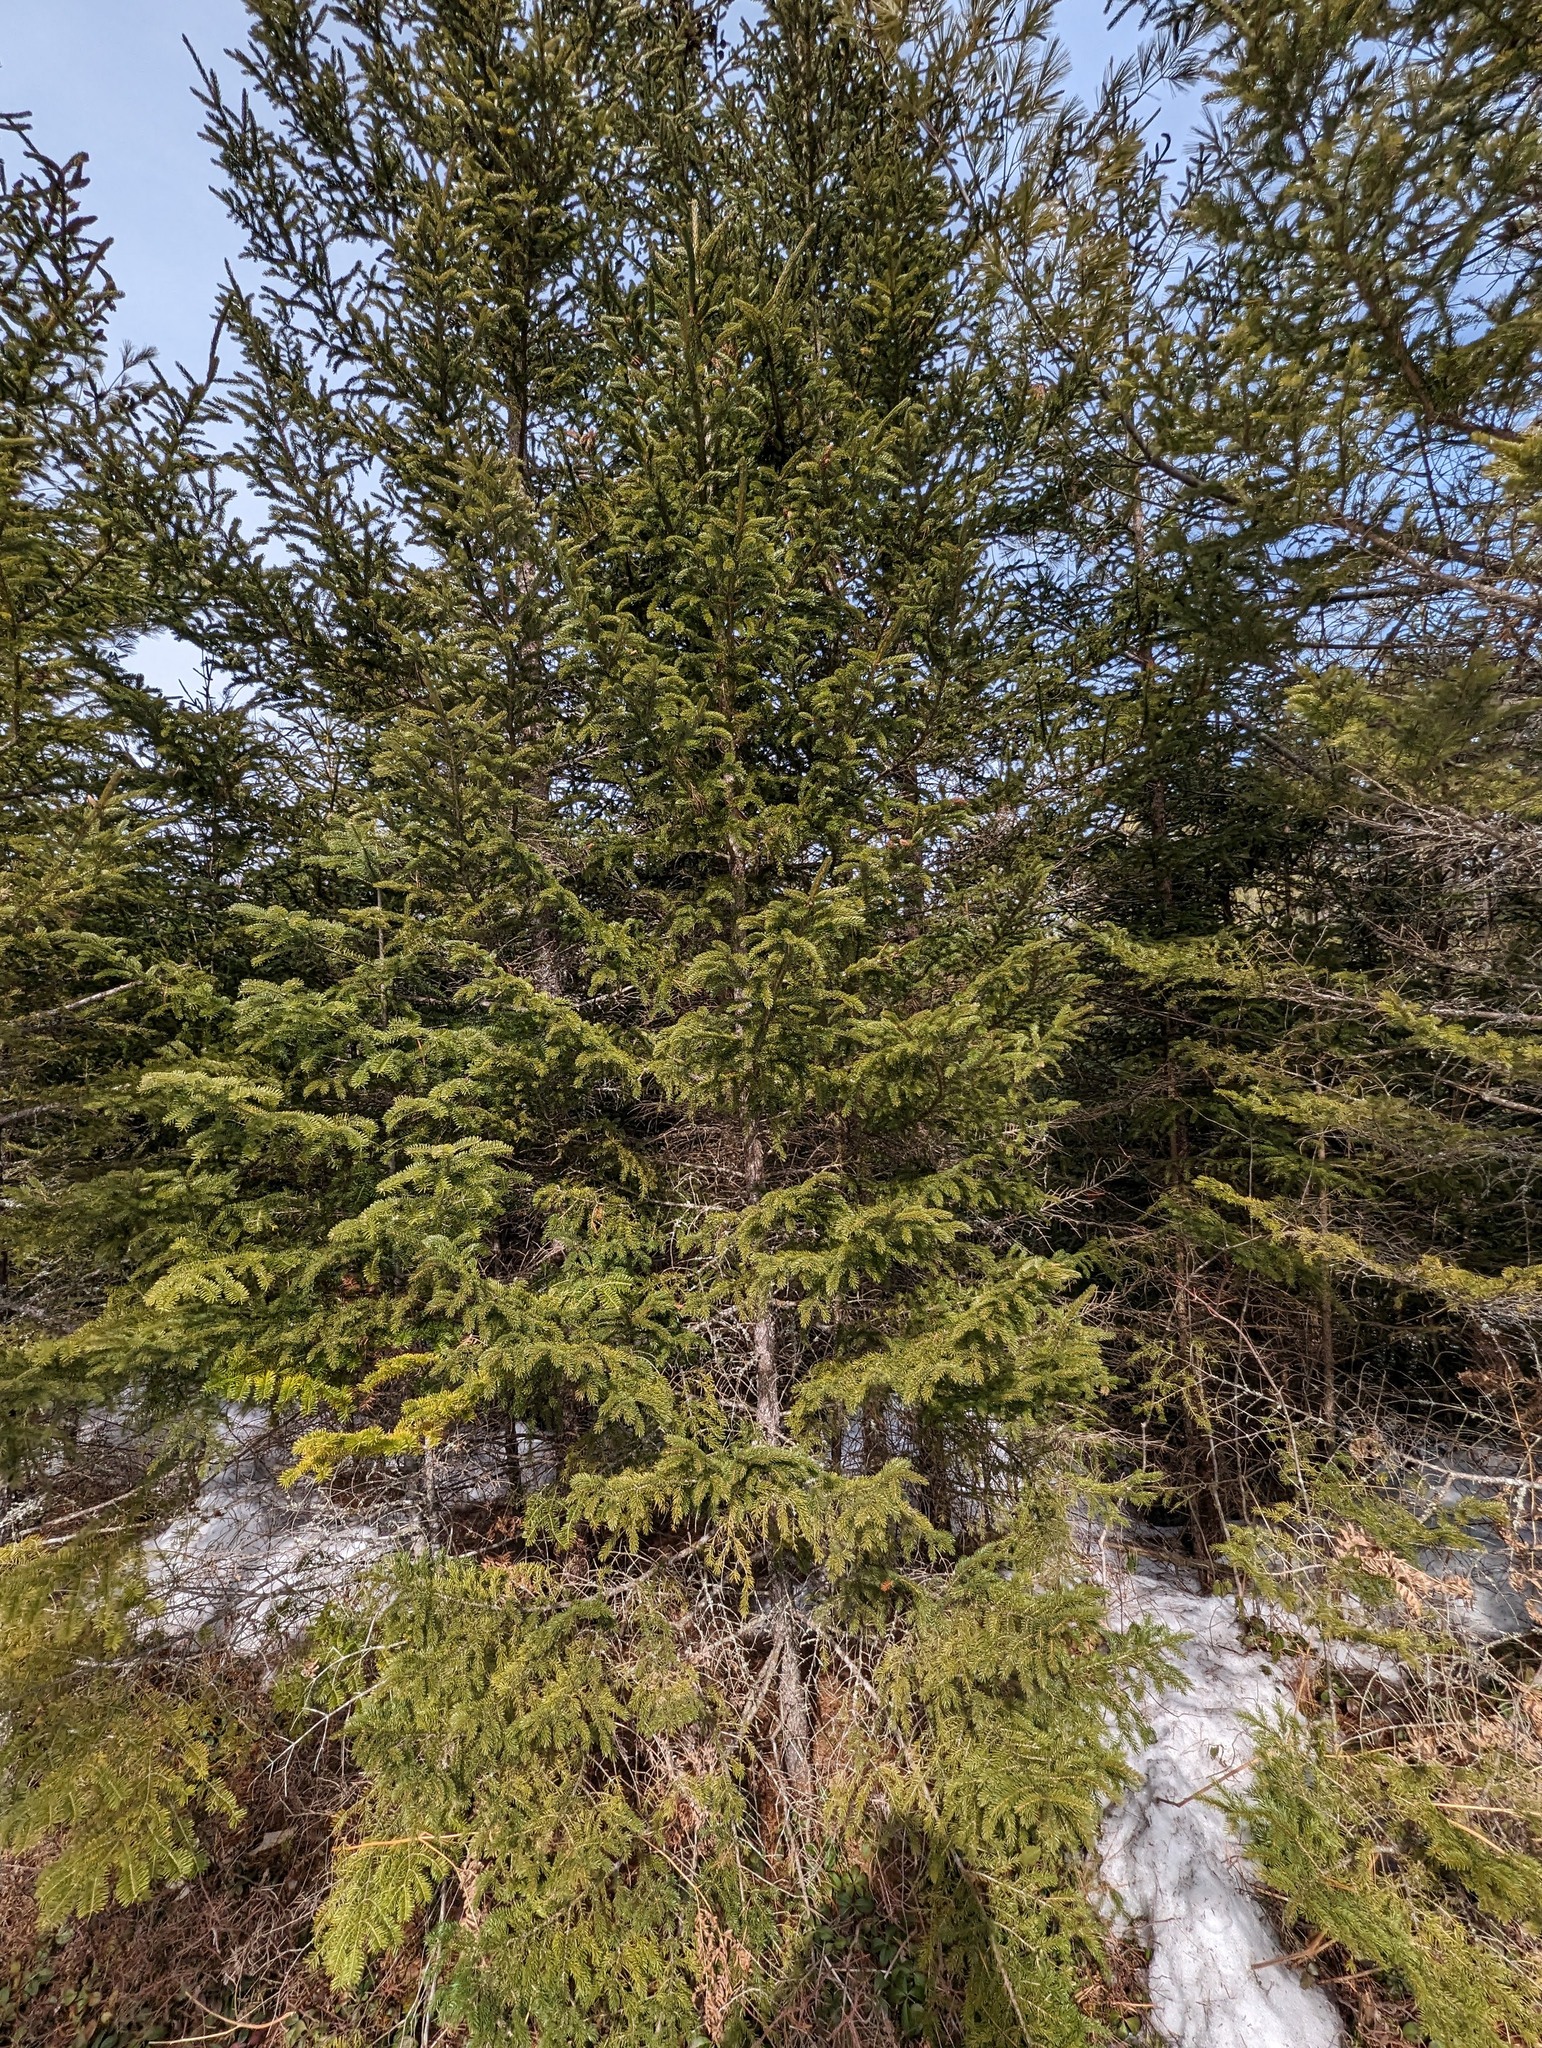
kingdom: Plantae
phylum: Tracheophyta
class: Pinopsida
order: Pinales
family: Pinaceae
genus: Picea
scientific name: Picea rubens
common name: Red spruce
